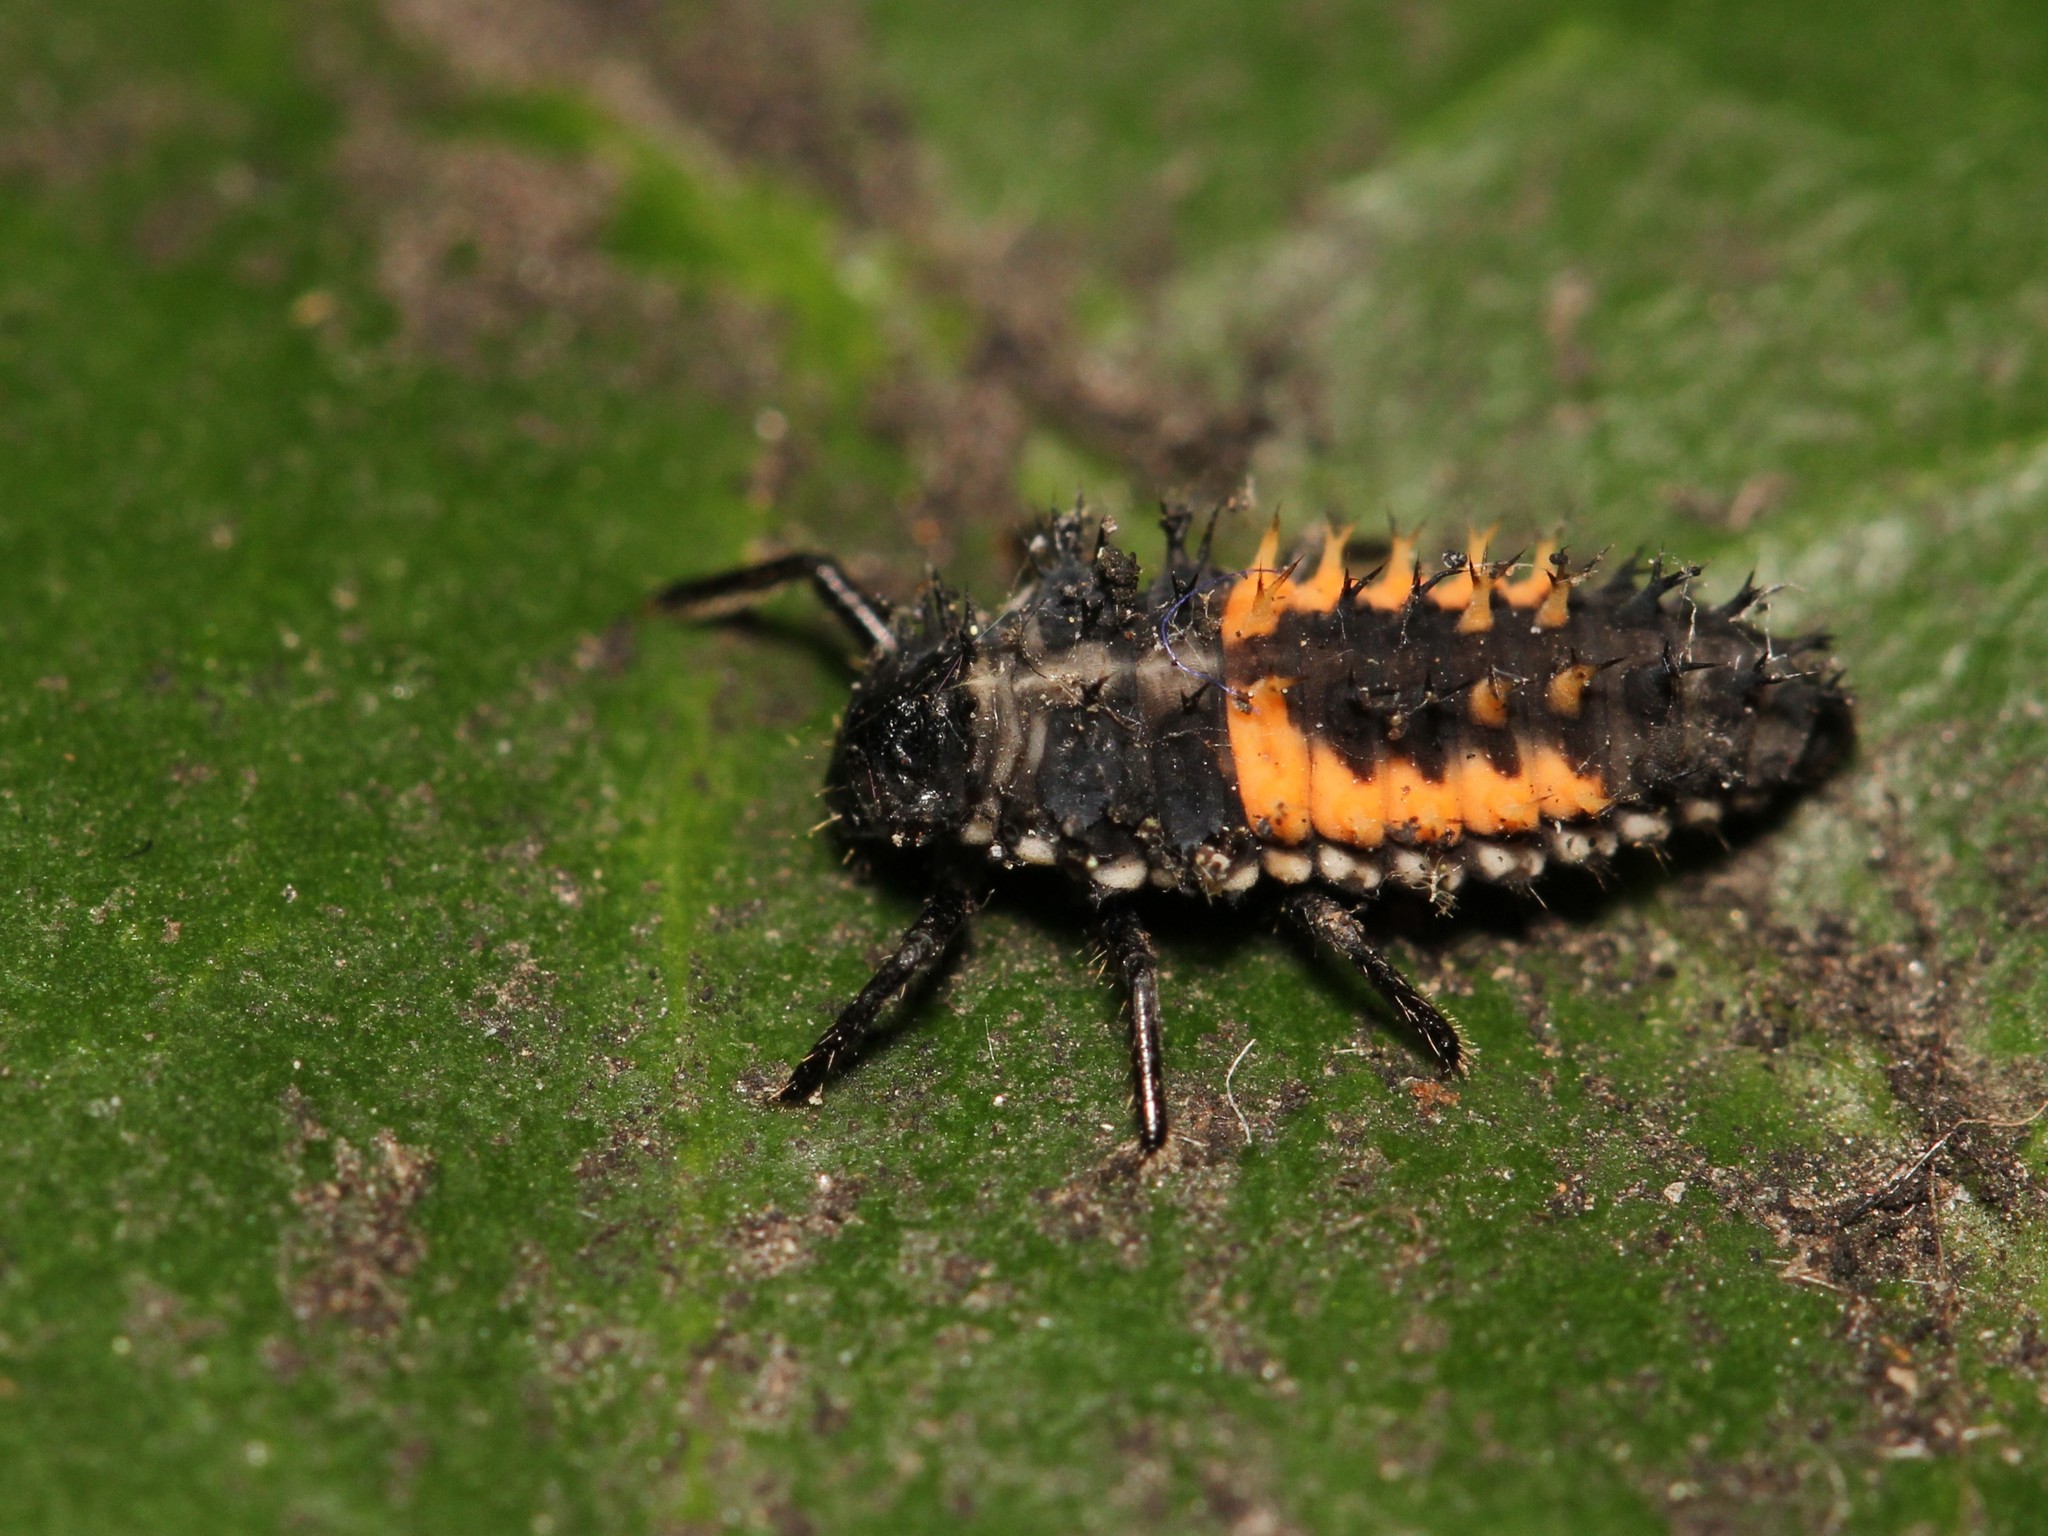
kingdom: Animalia
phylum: Arthropoda
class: Insecta
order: Coleoptera
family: Coccinellidae
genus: Harmonia
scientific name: Harmonia axyridis
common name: Harlequin ladybird
